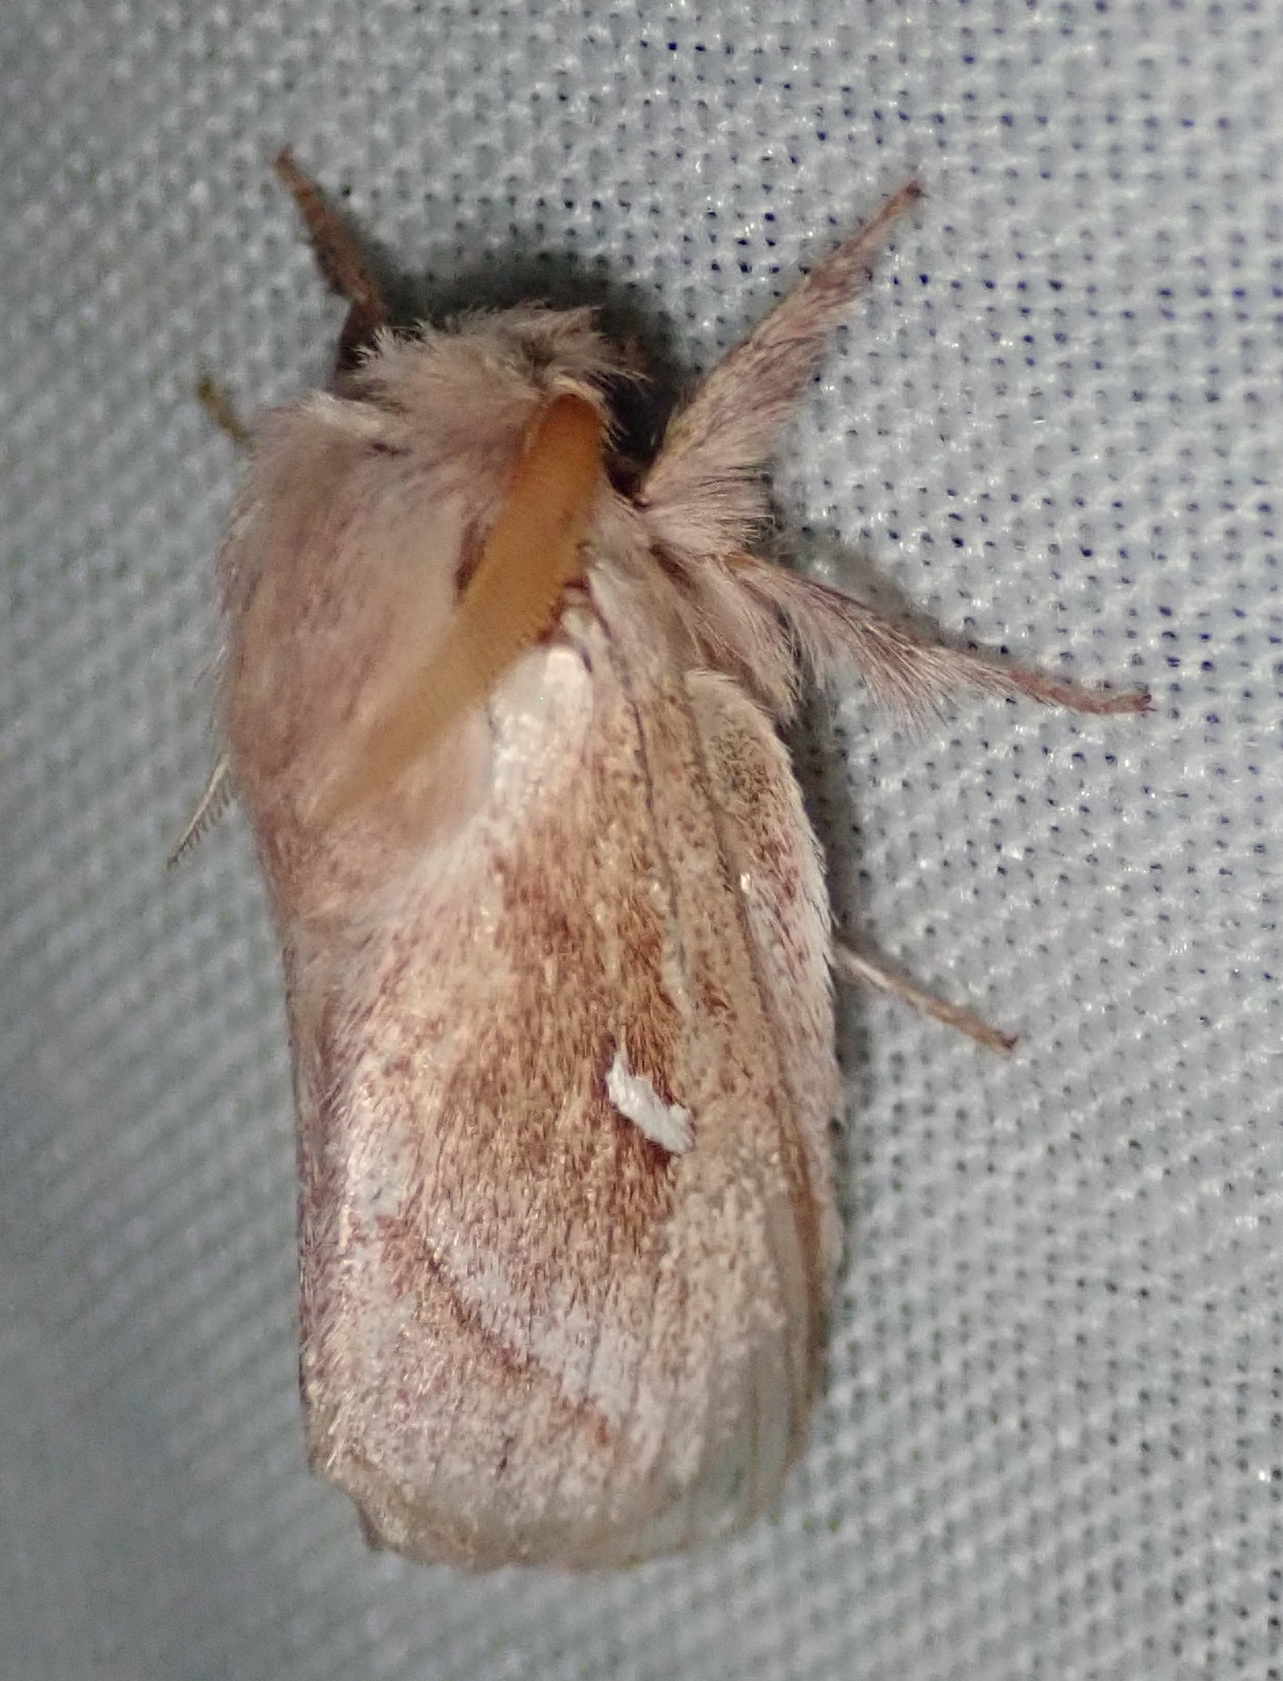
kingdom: Animalia
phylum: Arthropoda
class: Insecta
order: Lepidoptera
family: Lasiocampidae
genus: Sena
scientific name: Sena prompta
